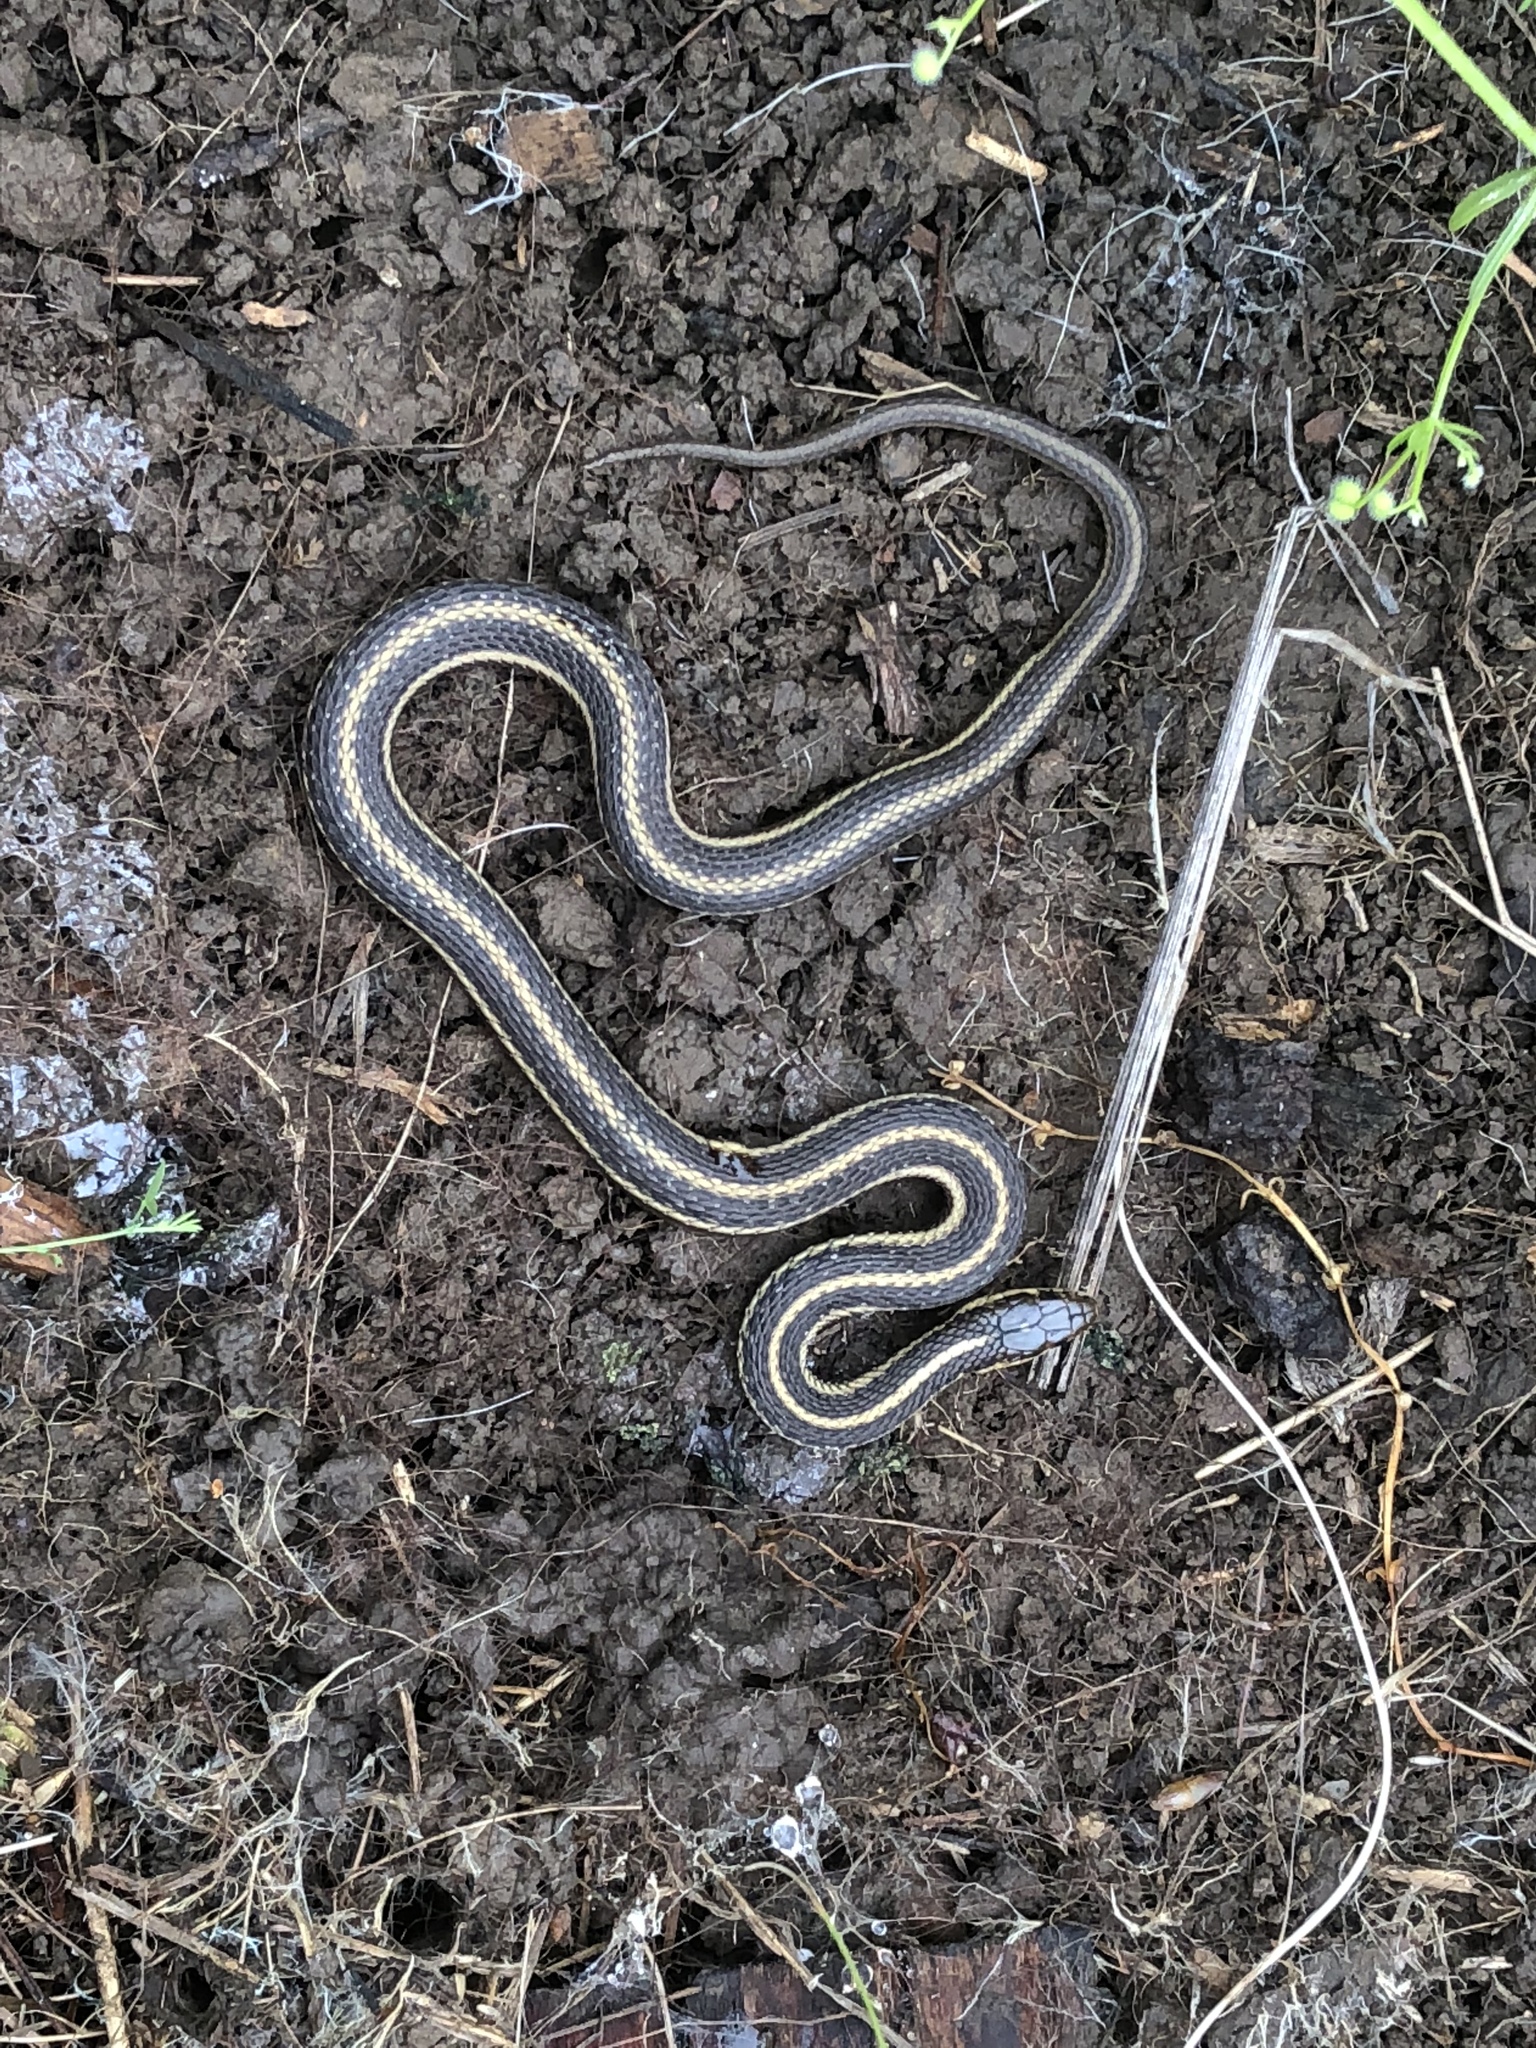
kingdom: Animalia
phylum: Chordata
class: Squamata
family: Colubridae
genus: Thamnophis
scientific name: Thamnophis ordinoides
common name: Northwestern garter snake
